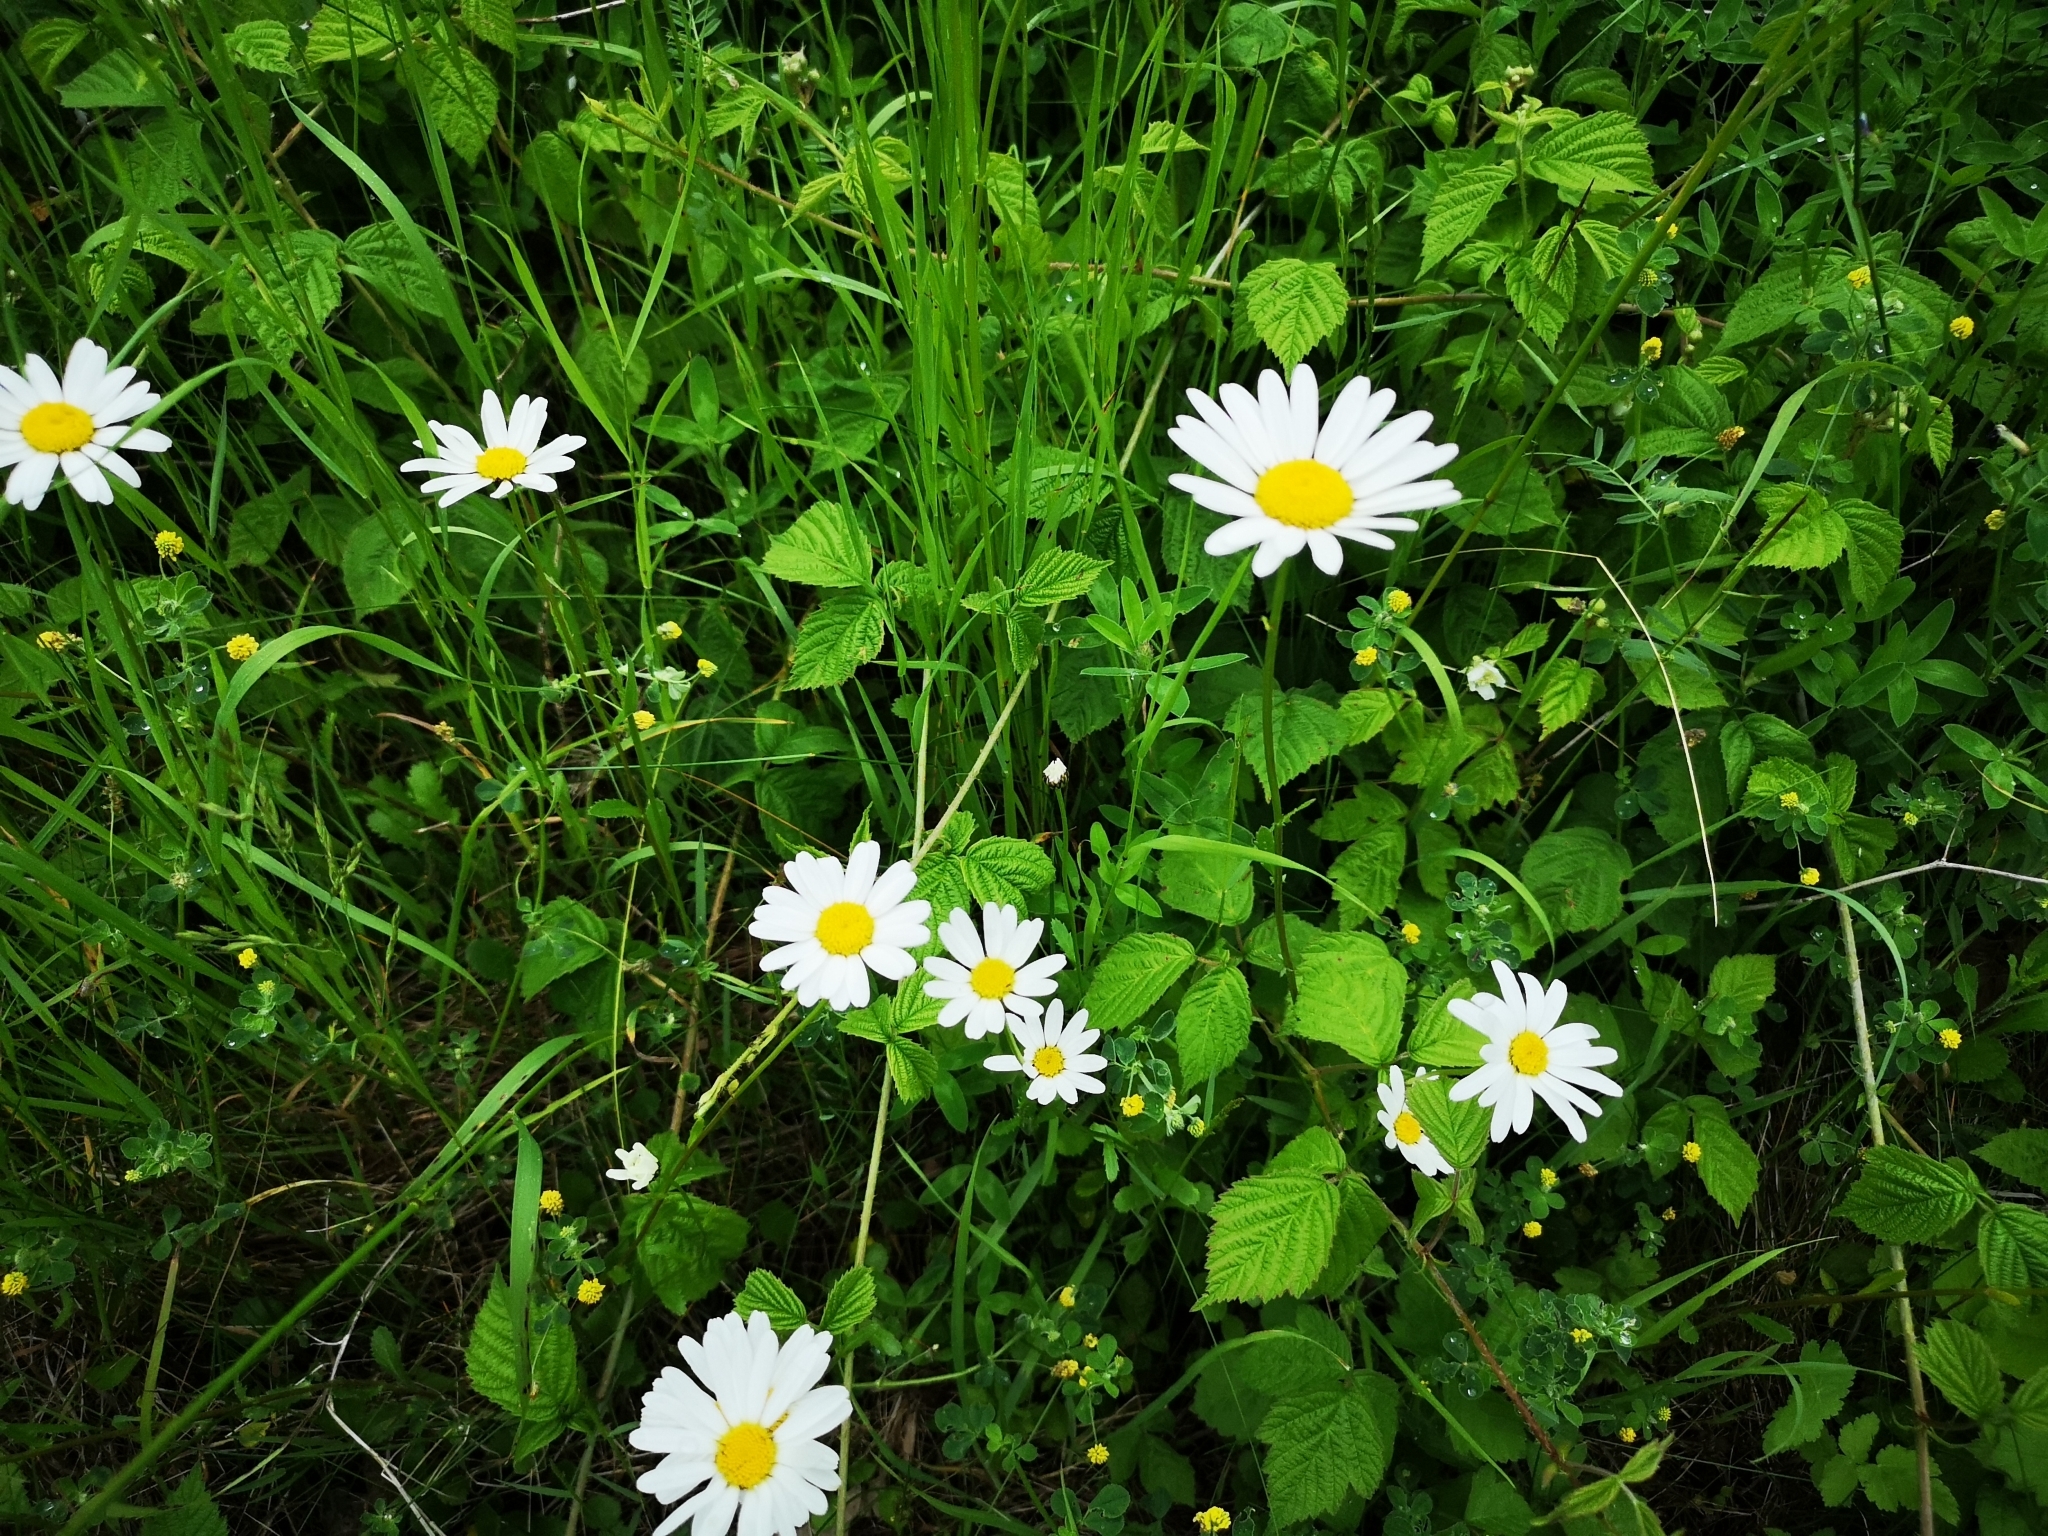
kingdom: Plantae
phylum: Tracheophyta
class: Magnoliopsida
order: Asterales
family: Asteraceae
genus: Leucanthemum
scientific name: Leucanthemum vulgare
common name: Oxeye daisy
